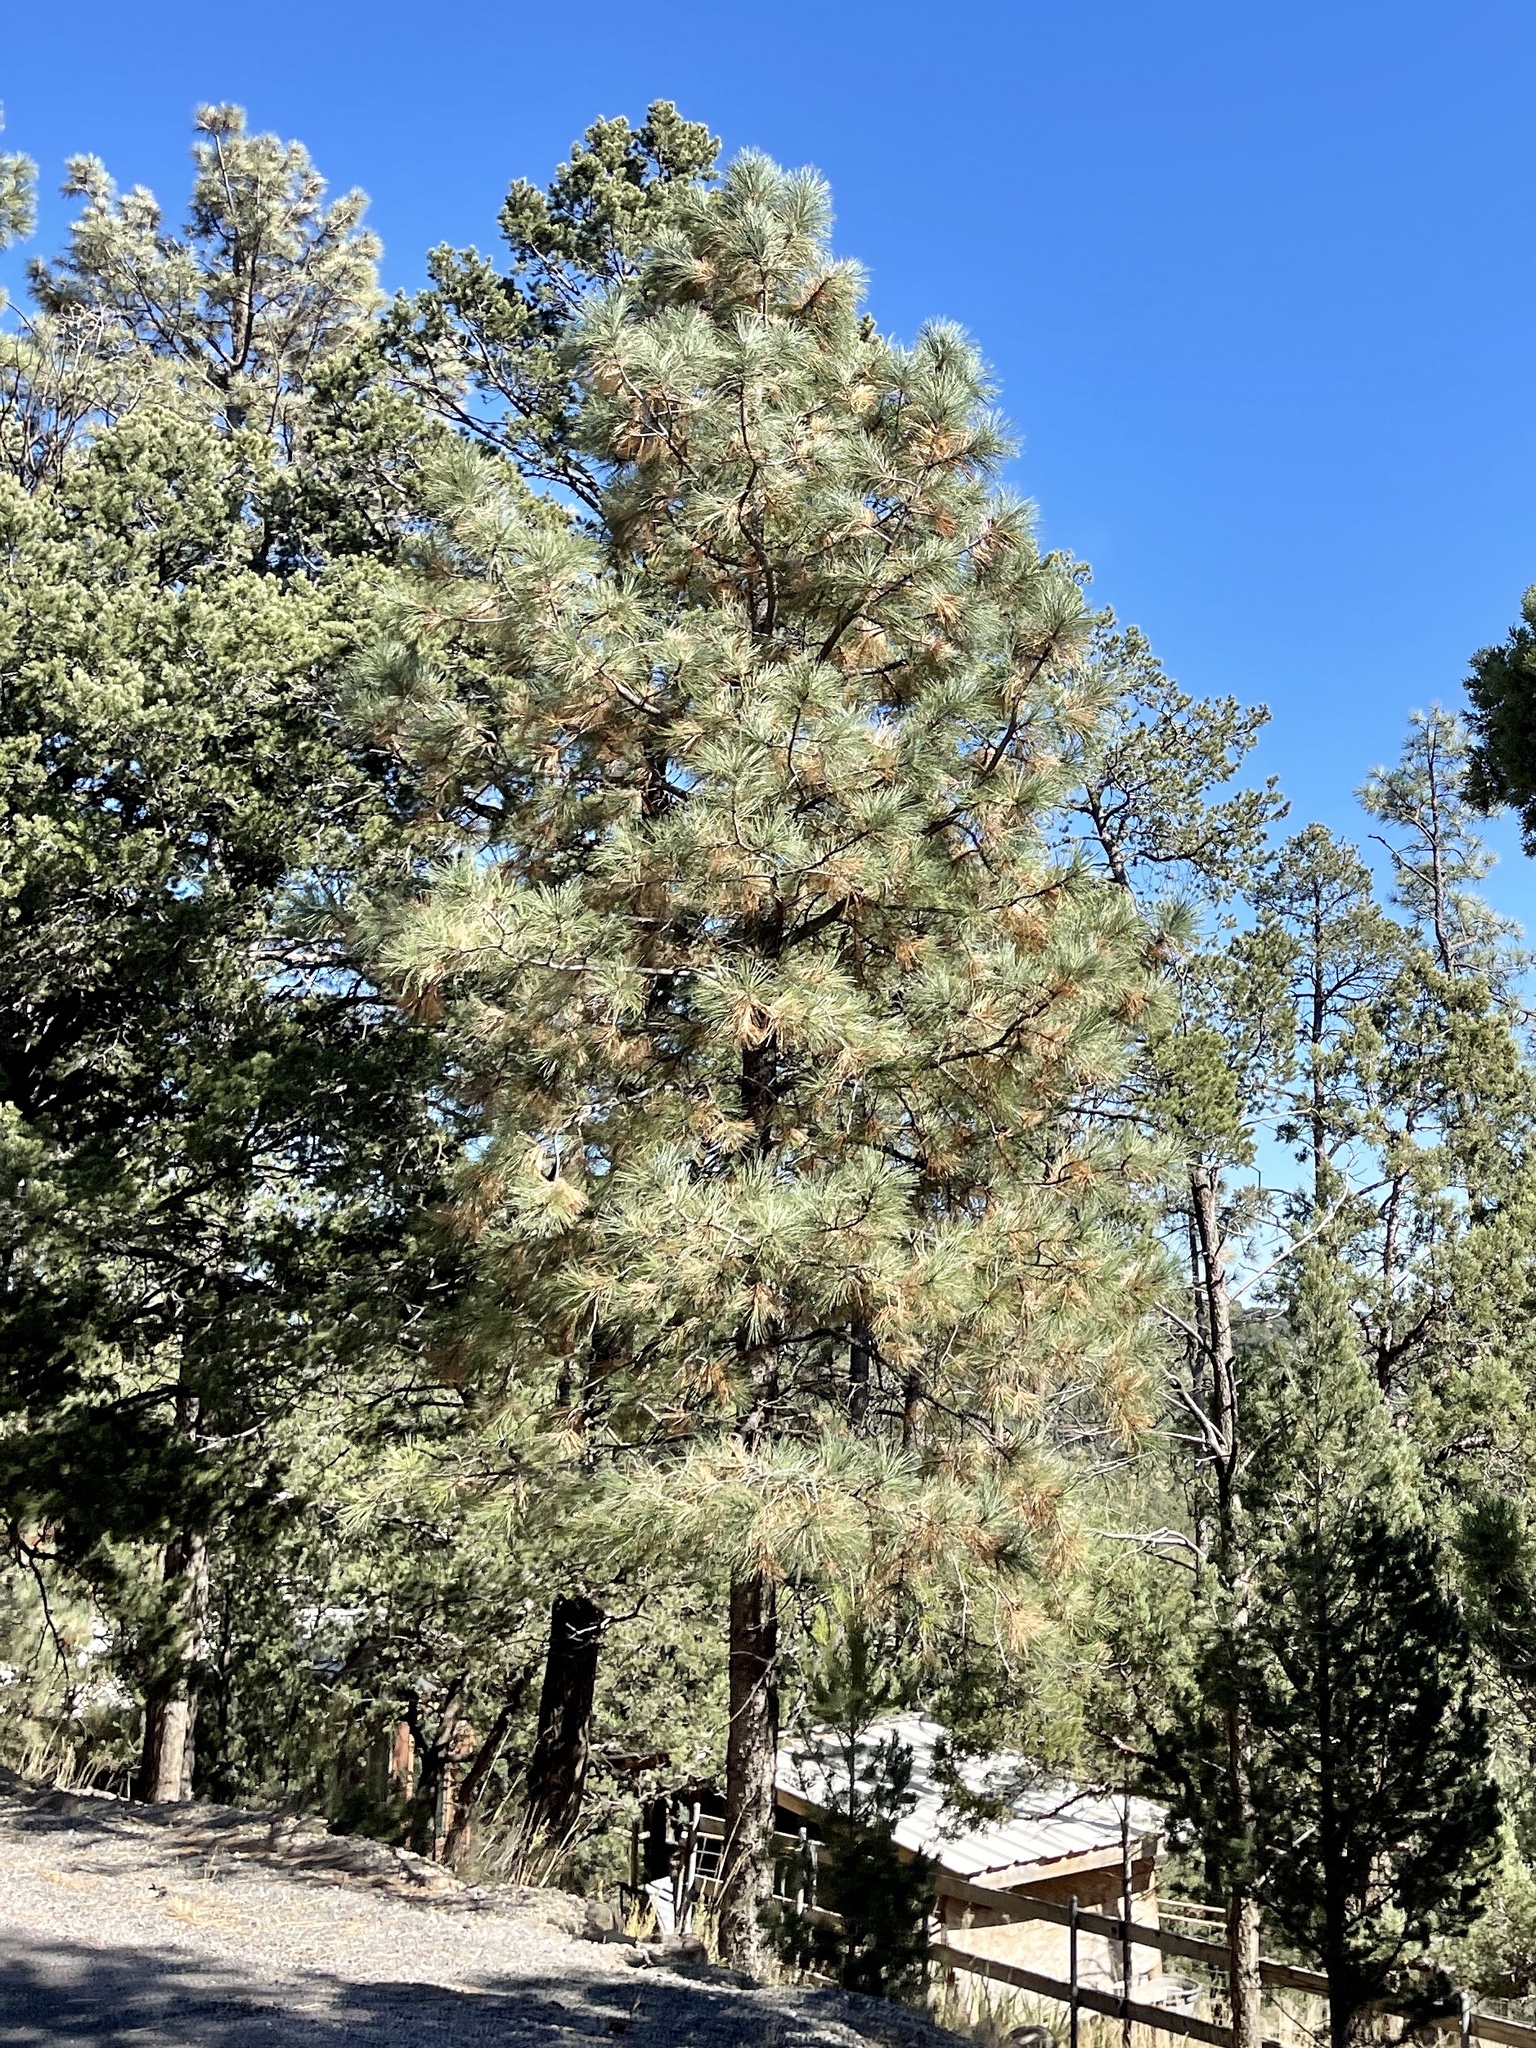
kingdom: Plantae
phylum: Tracheophyta
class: Pinopsida
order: Pinales
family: Pinaceae
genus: Pinus
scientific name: Pinus ponderosa
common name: Western yellow-pine
